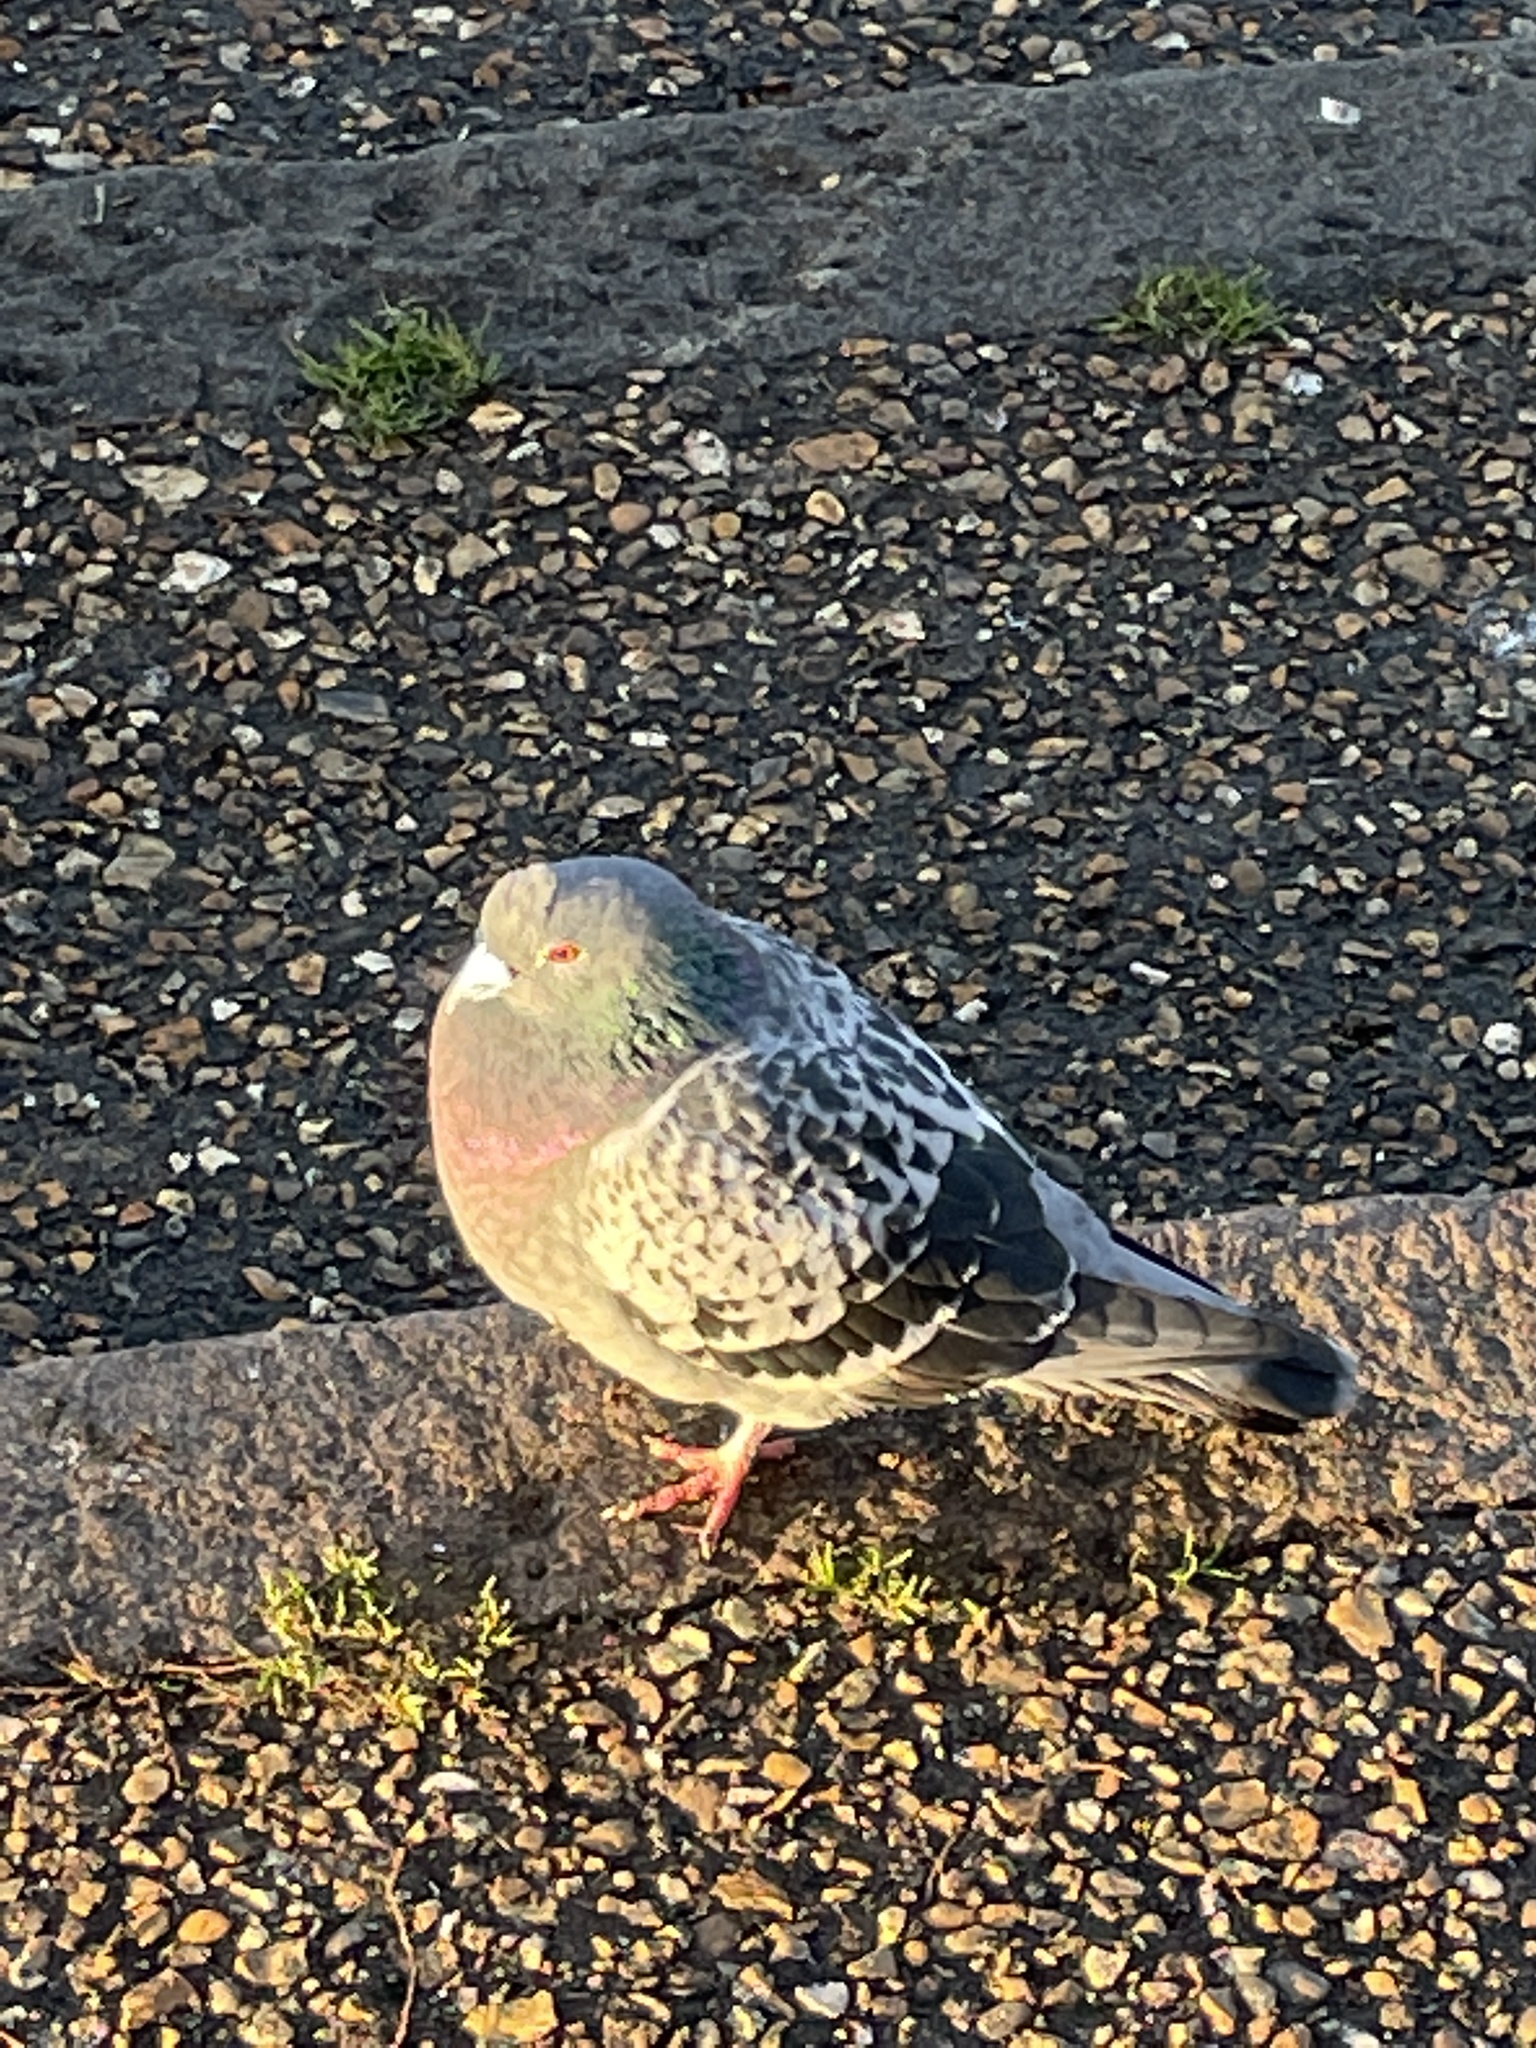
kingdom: Animalia
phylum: Chordata
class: Aves
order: Columbiformes
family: Columbidae
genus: Columba
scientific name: Columba livia
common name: Rock pigeon
